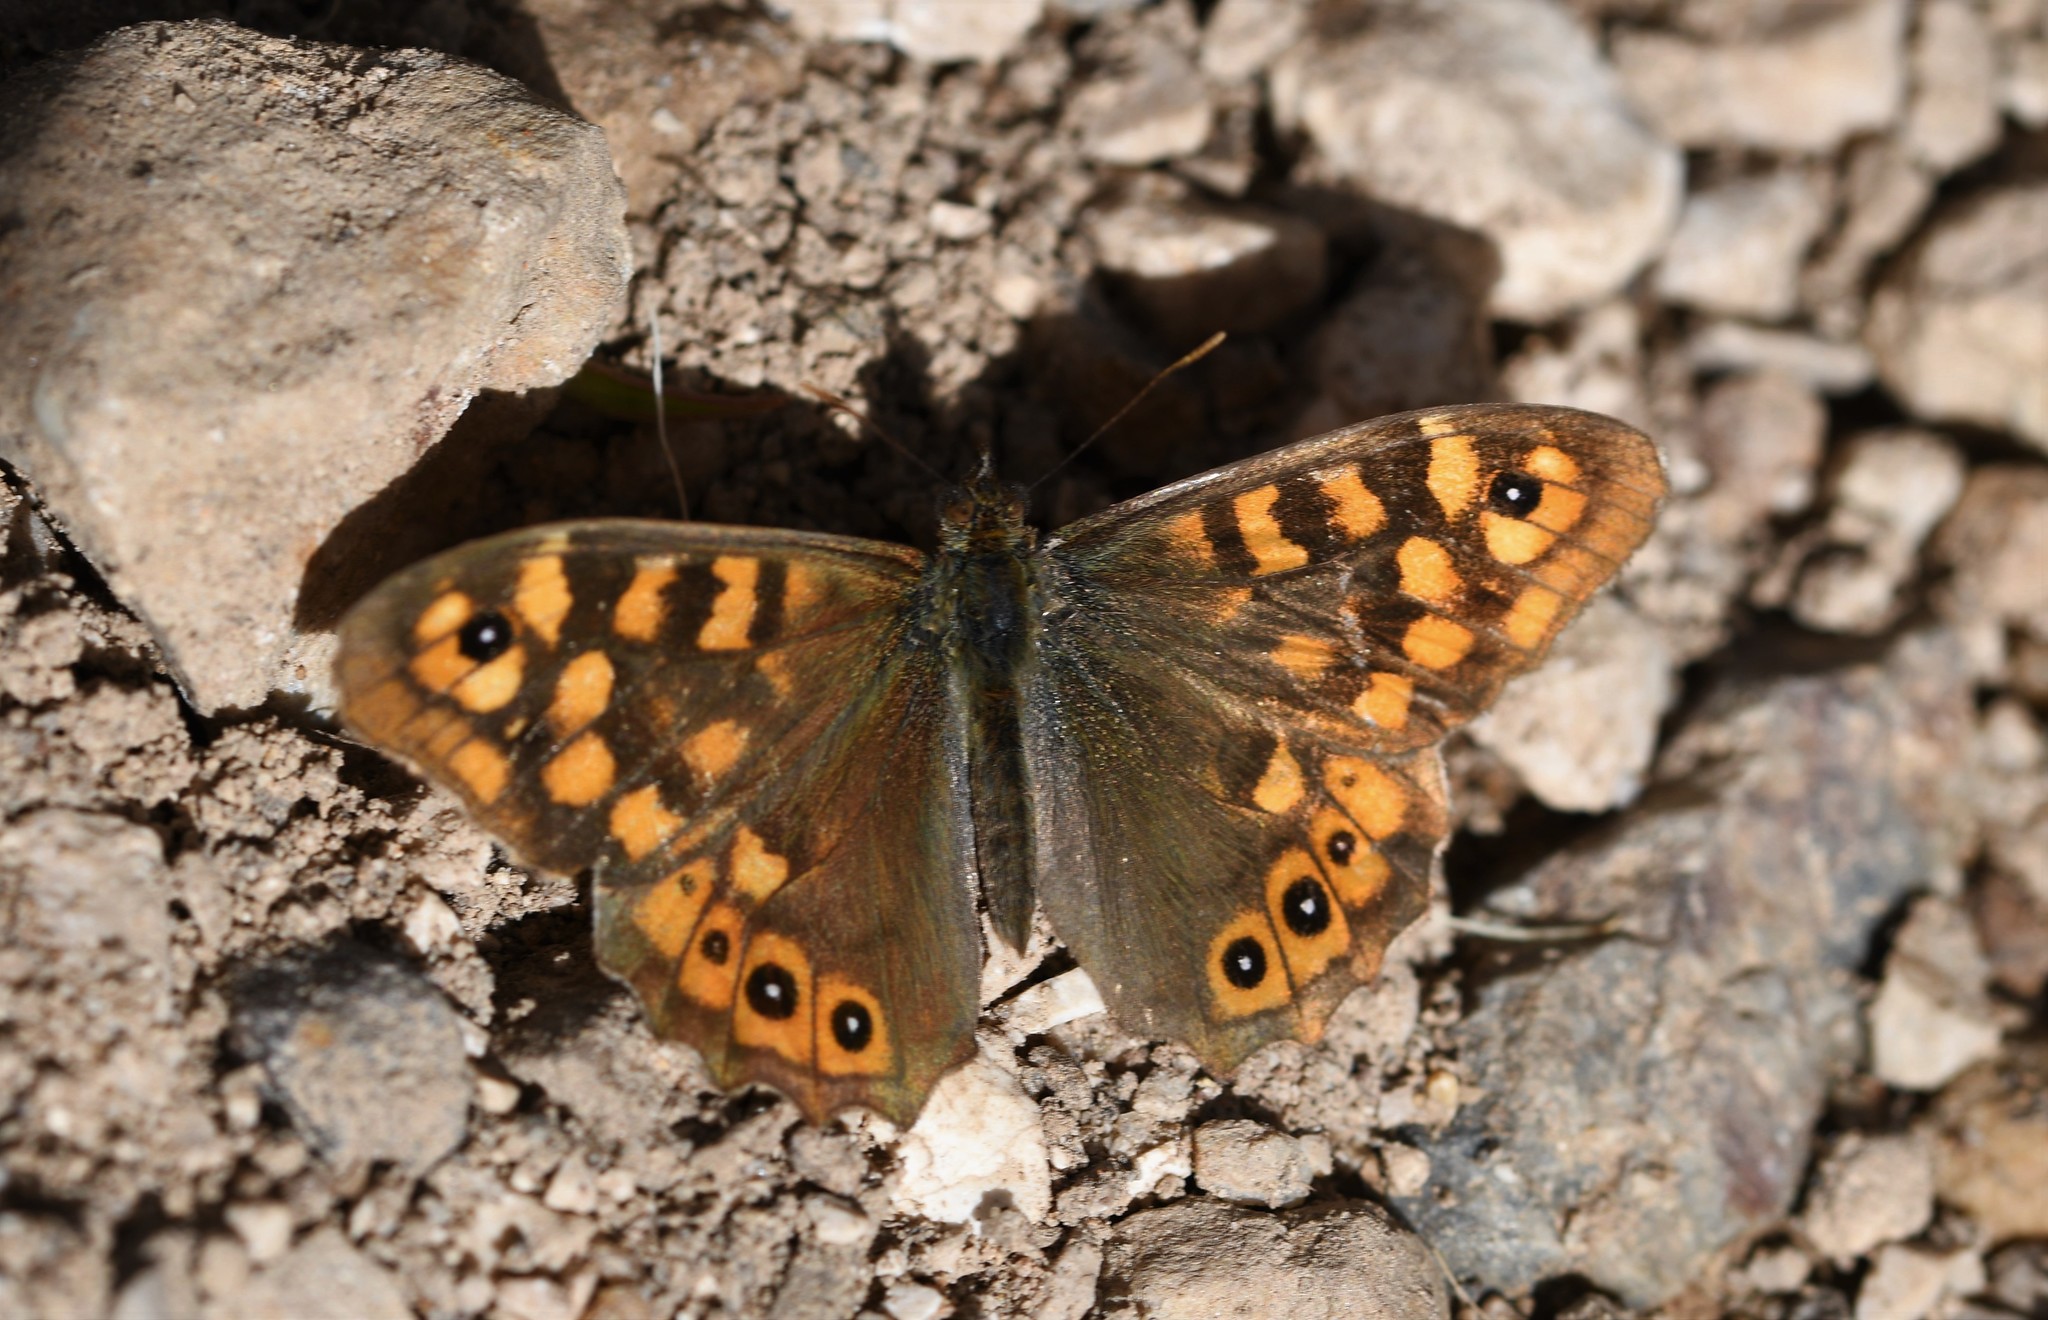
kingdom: Animalia
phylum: Arthropoda
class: Insecta
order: Lepidoptera
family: Nymphalidae
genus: Pararge
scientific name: Pararge aegeria
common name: Speckled wood
